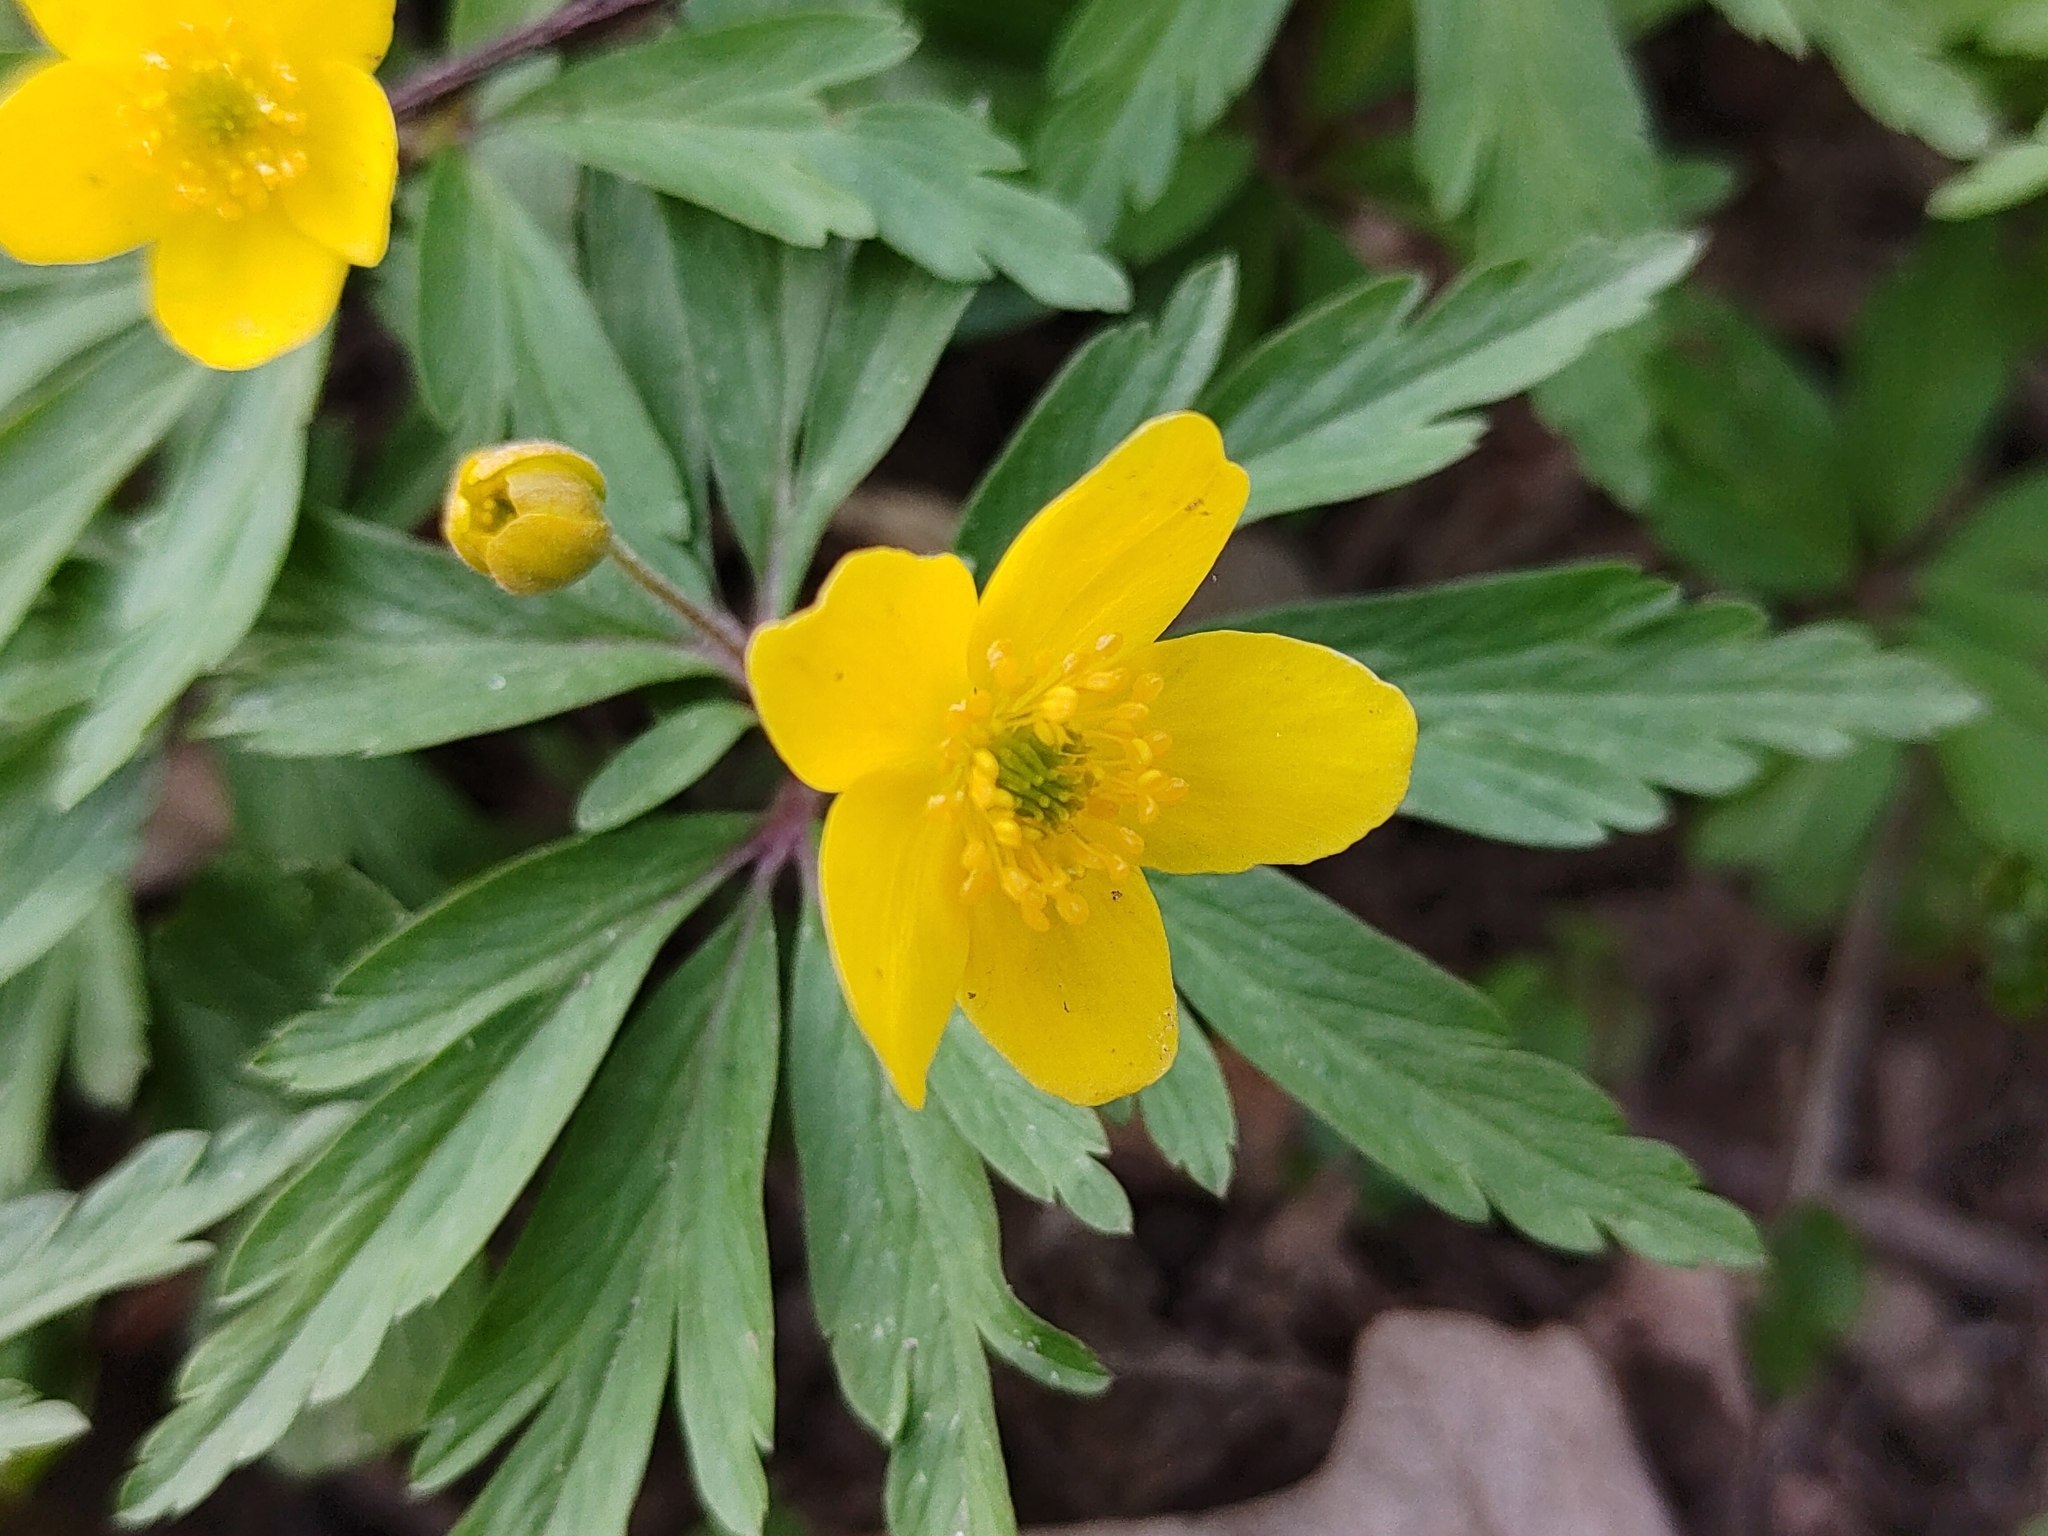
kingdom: Plantae
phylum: Tracheophyta
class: Magnoliopsida
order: Ranunculales
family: Ranunculaceae
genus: Anemone
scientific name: Anemone ranunculoides
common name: Yellow anemone
